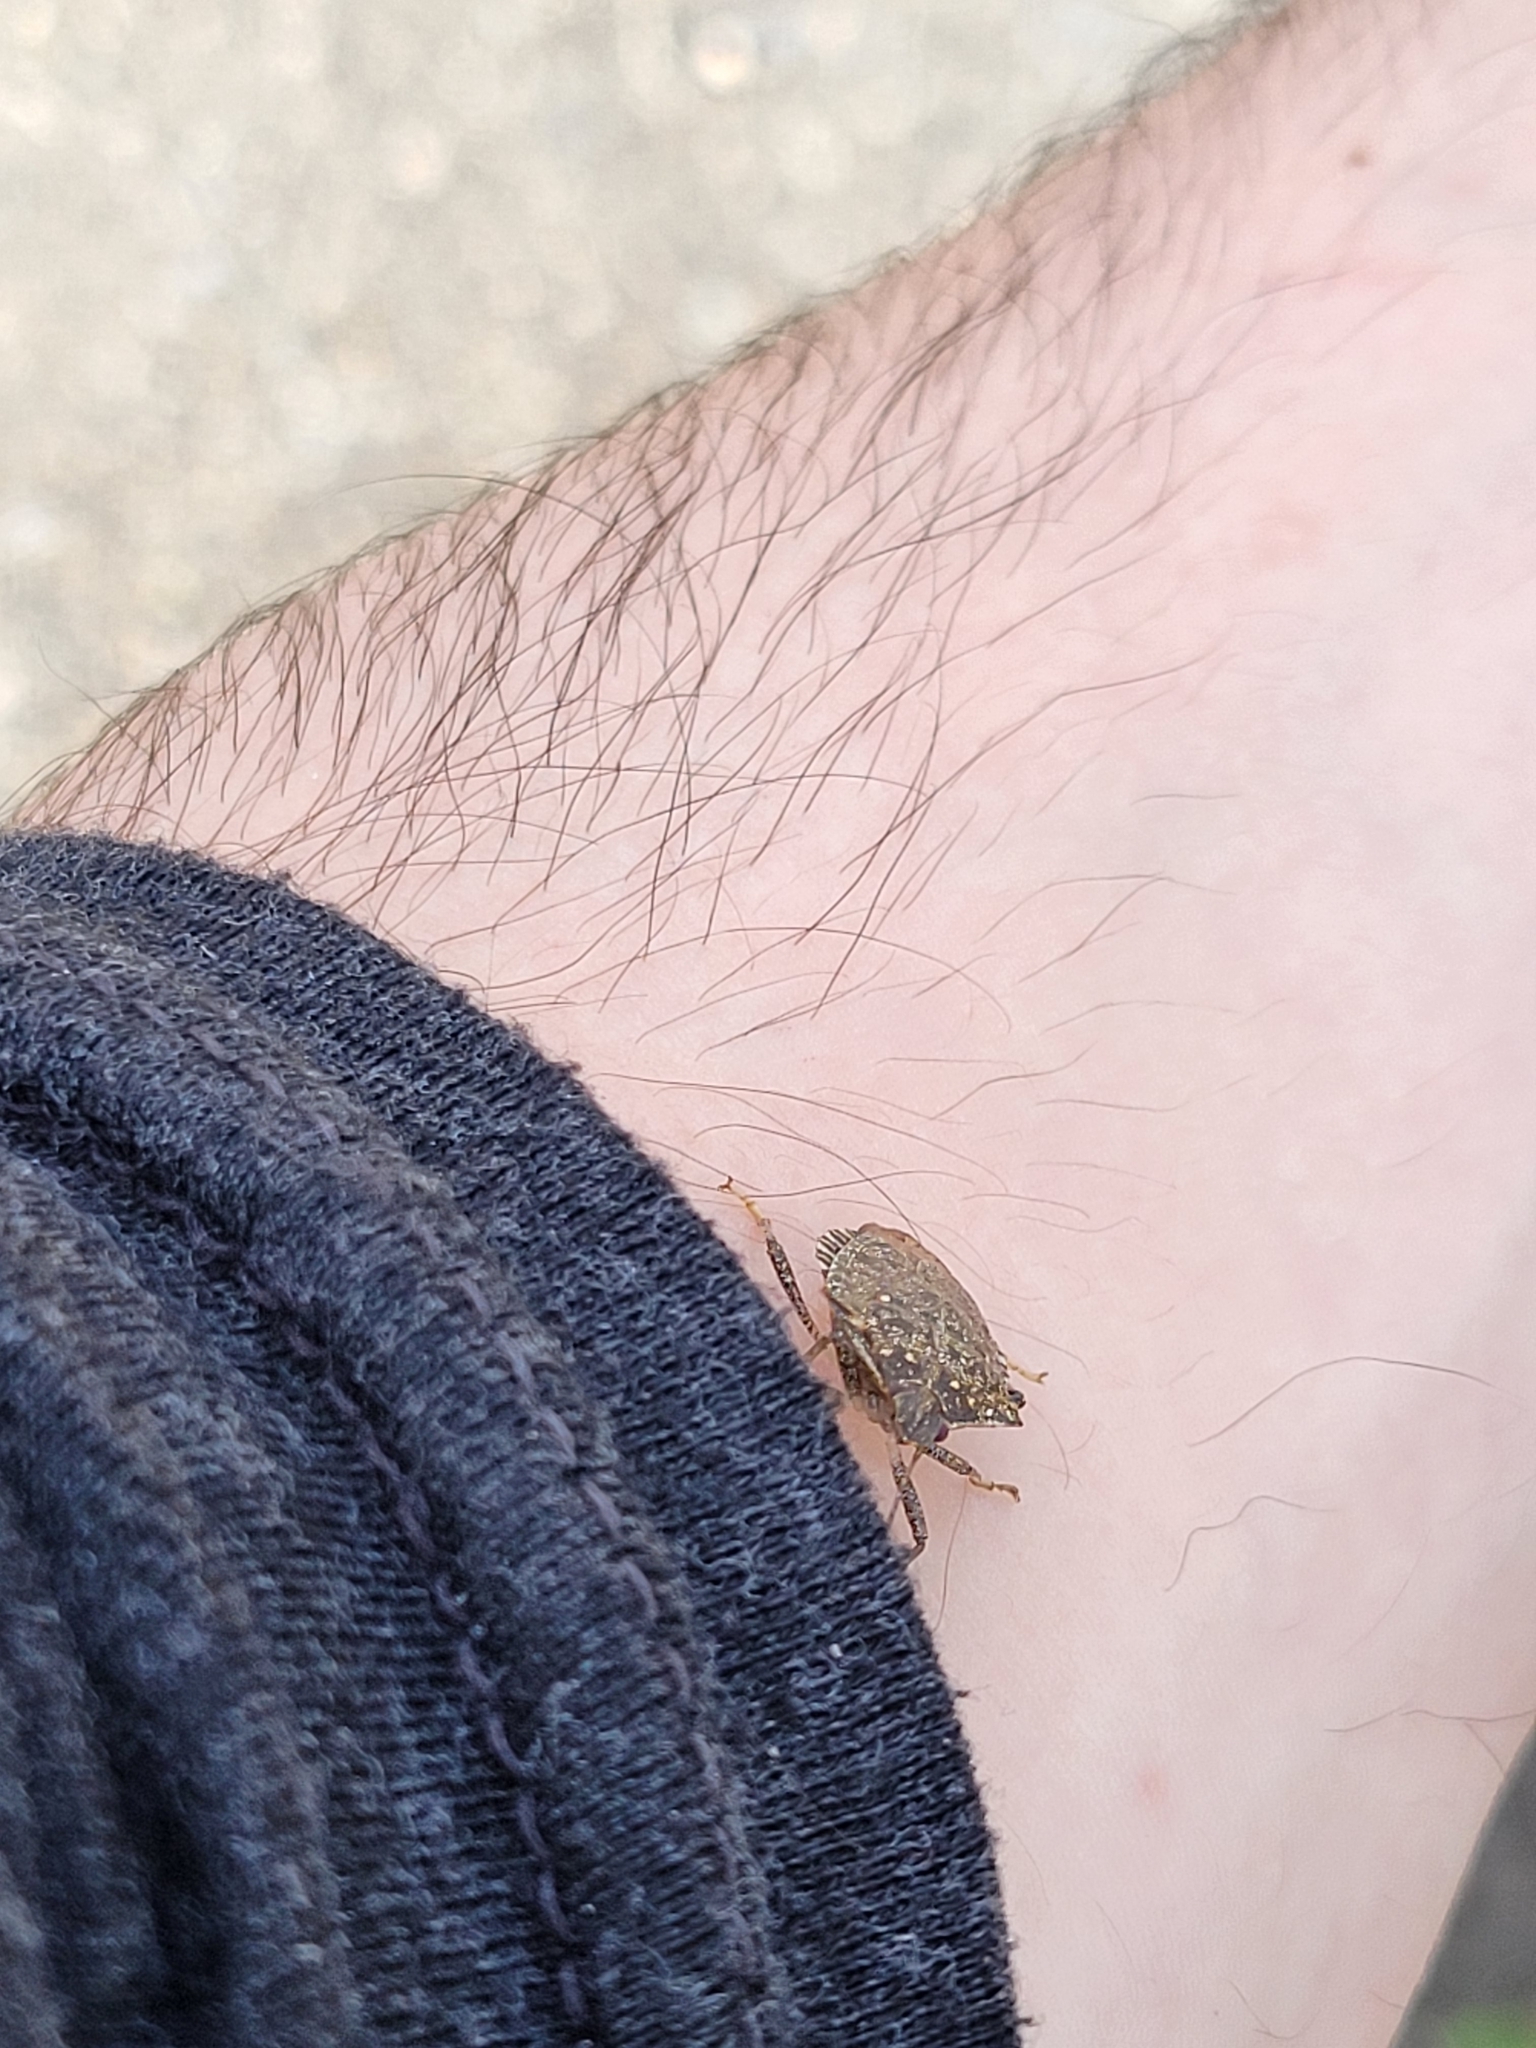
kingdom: Animalia
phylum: Arthropoda
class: Insecta
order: Hemiptera
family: Pentatomidae
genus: Halyomorpha
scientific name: Halyomorpha halys
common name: Brown marmorated stink bug
